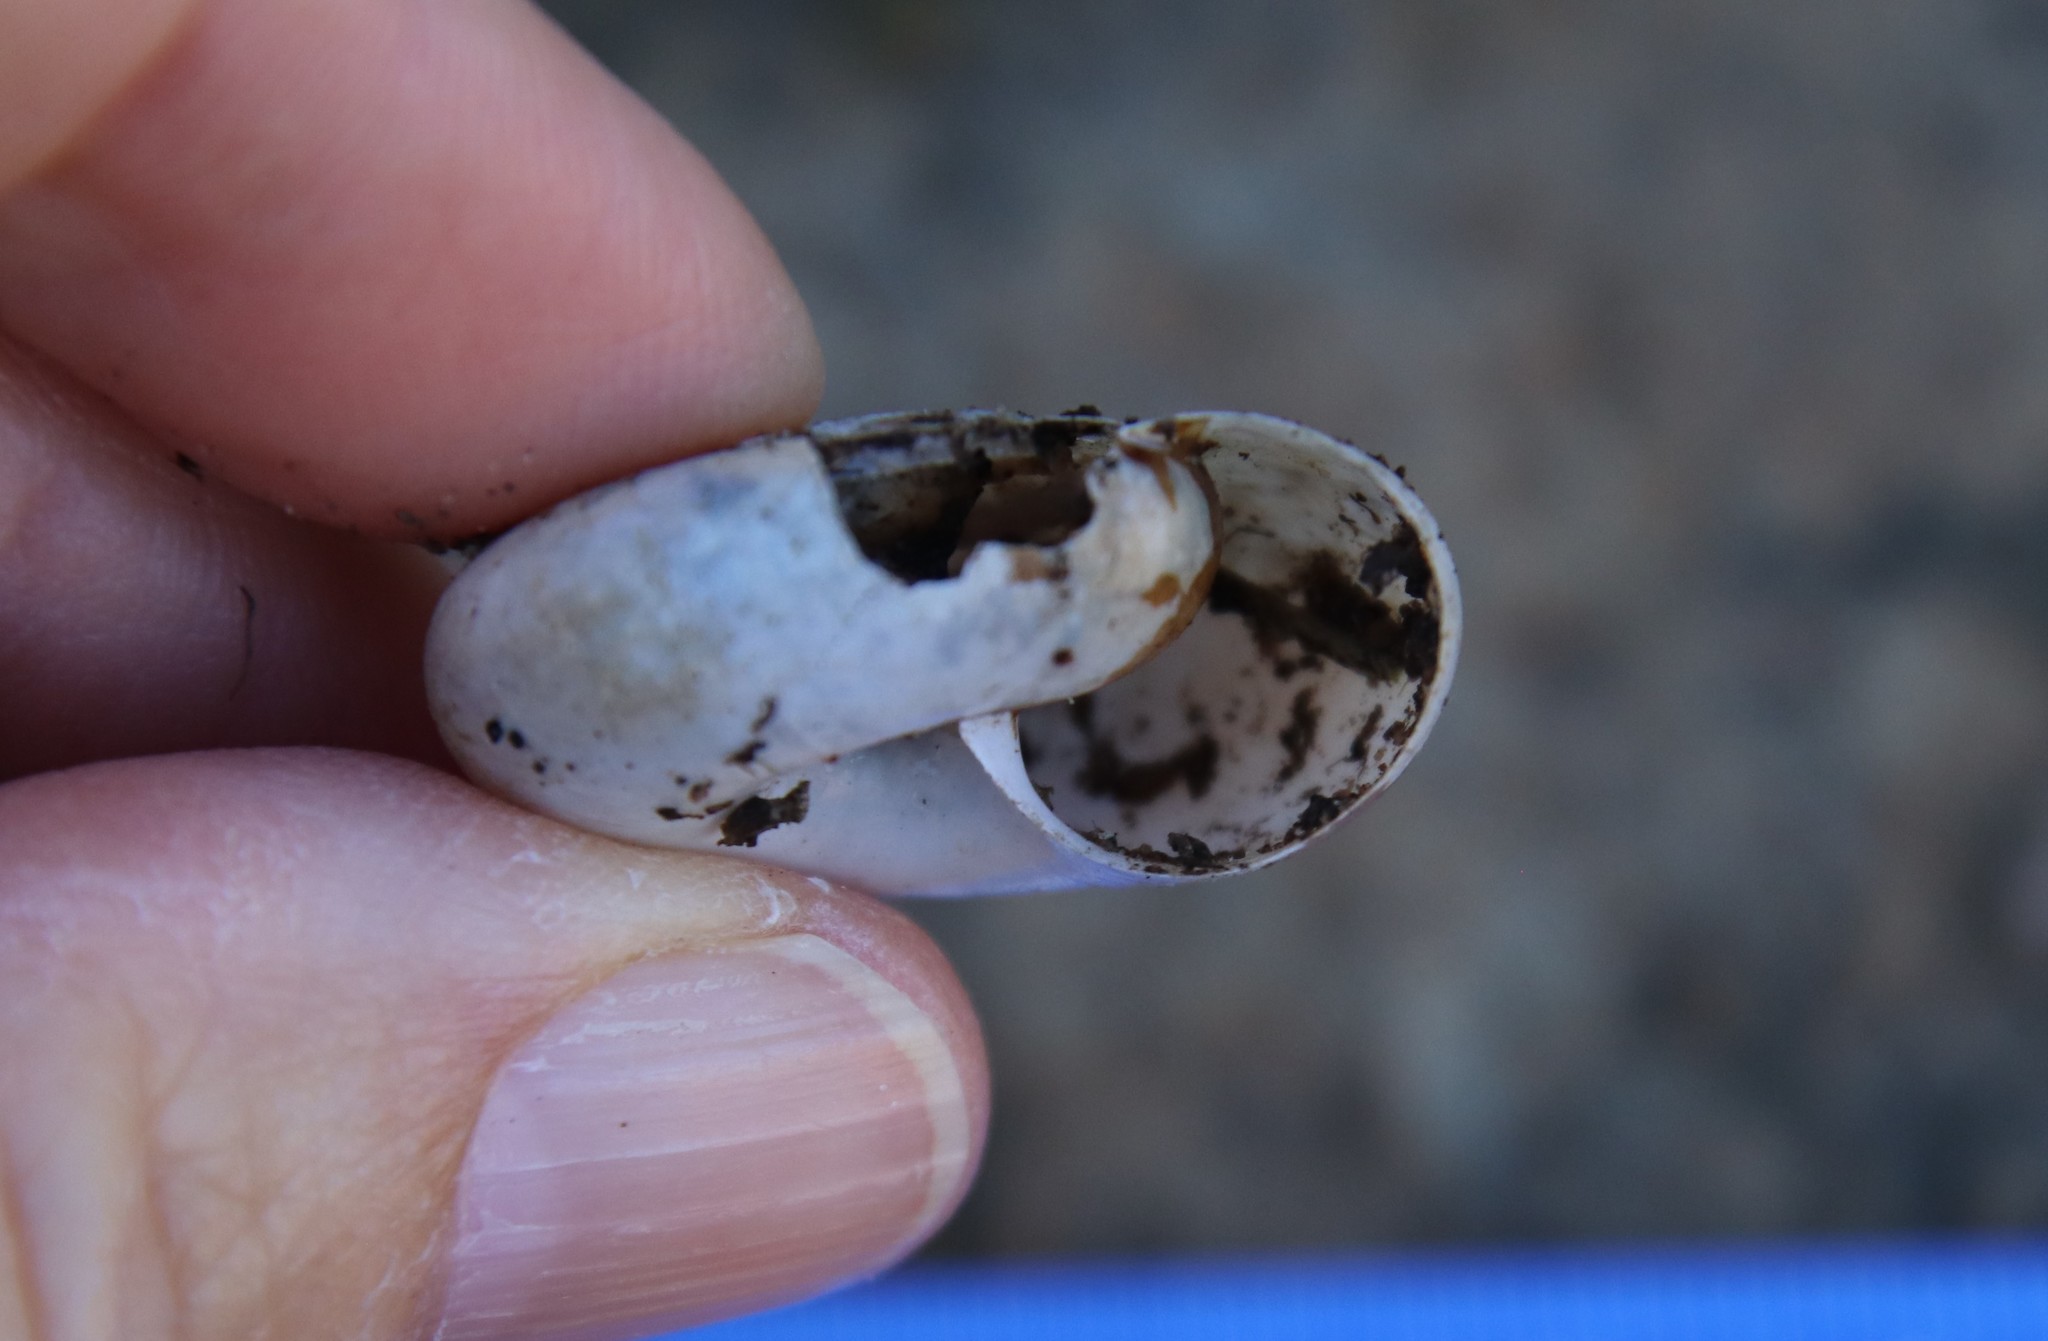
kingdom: Animalia
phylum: Mollusca
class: Gastropoda
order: Stylommatophora
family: Megomphicidae
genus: Glyptostoma
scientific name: Glyptostoma newberryanum
